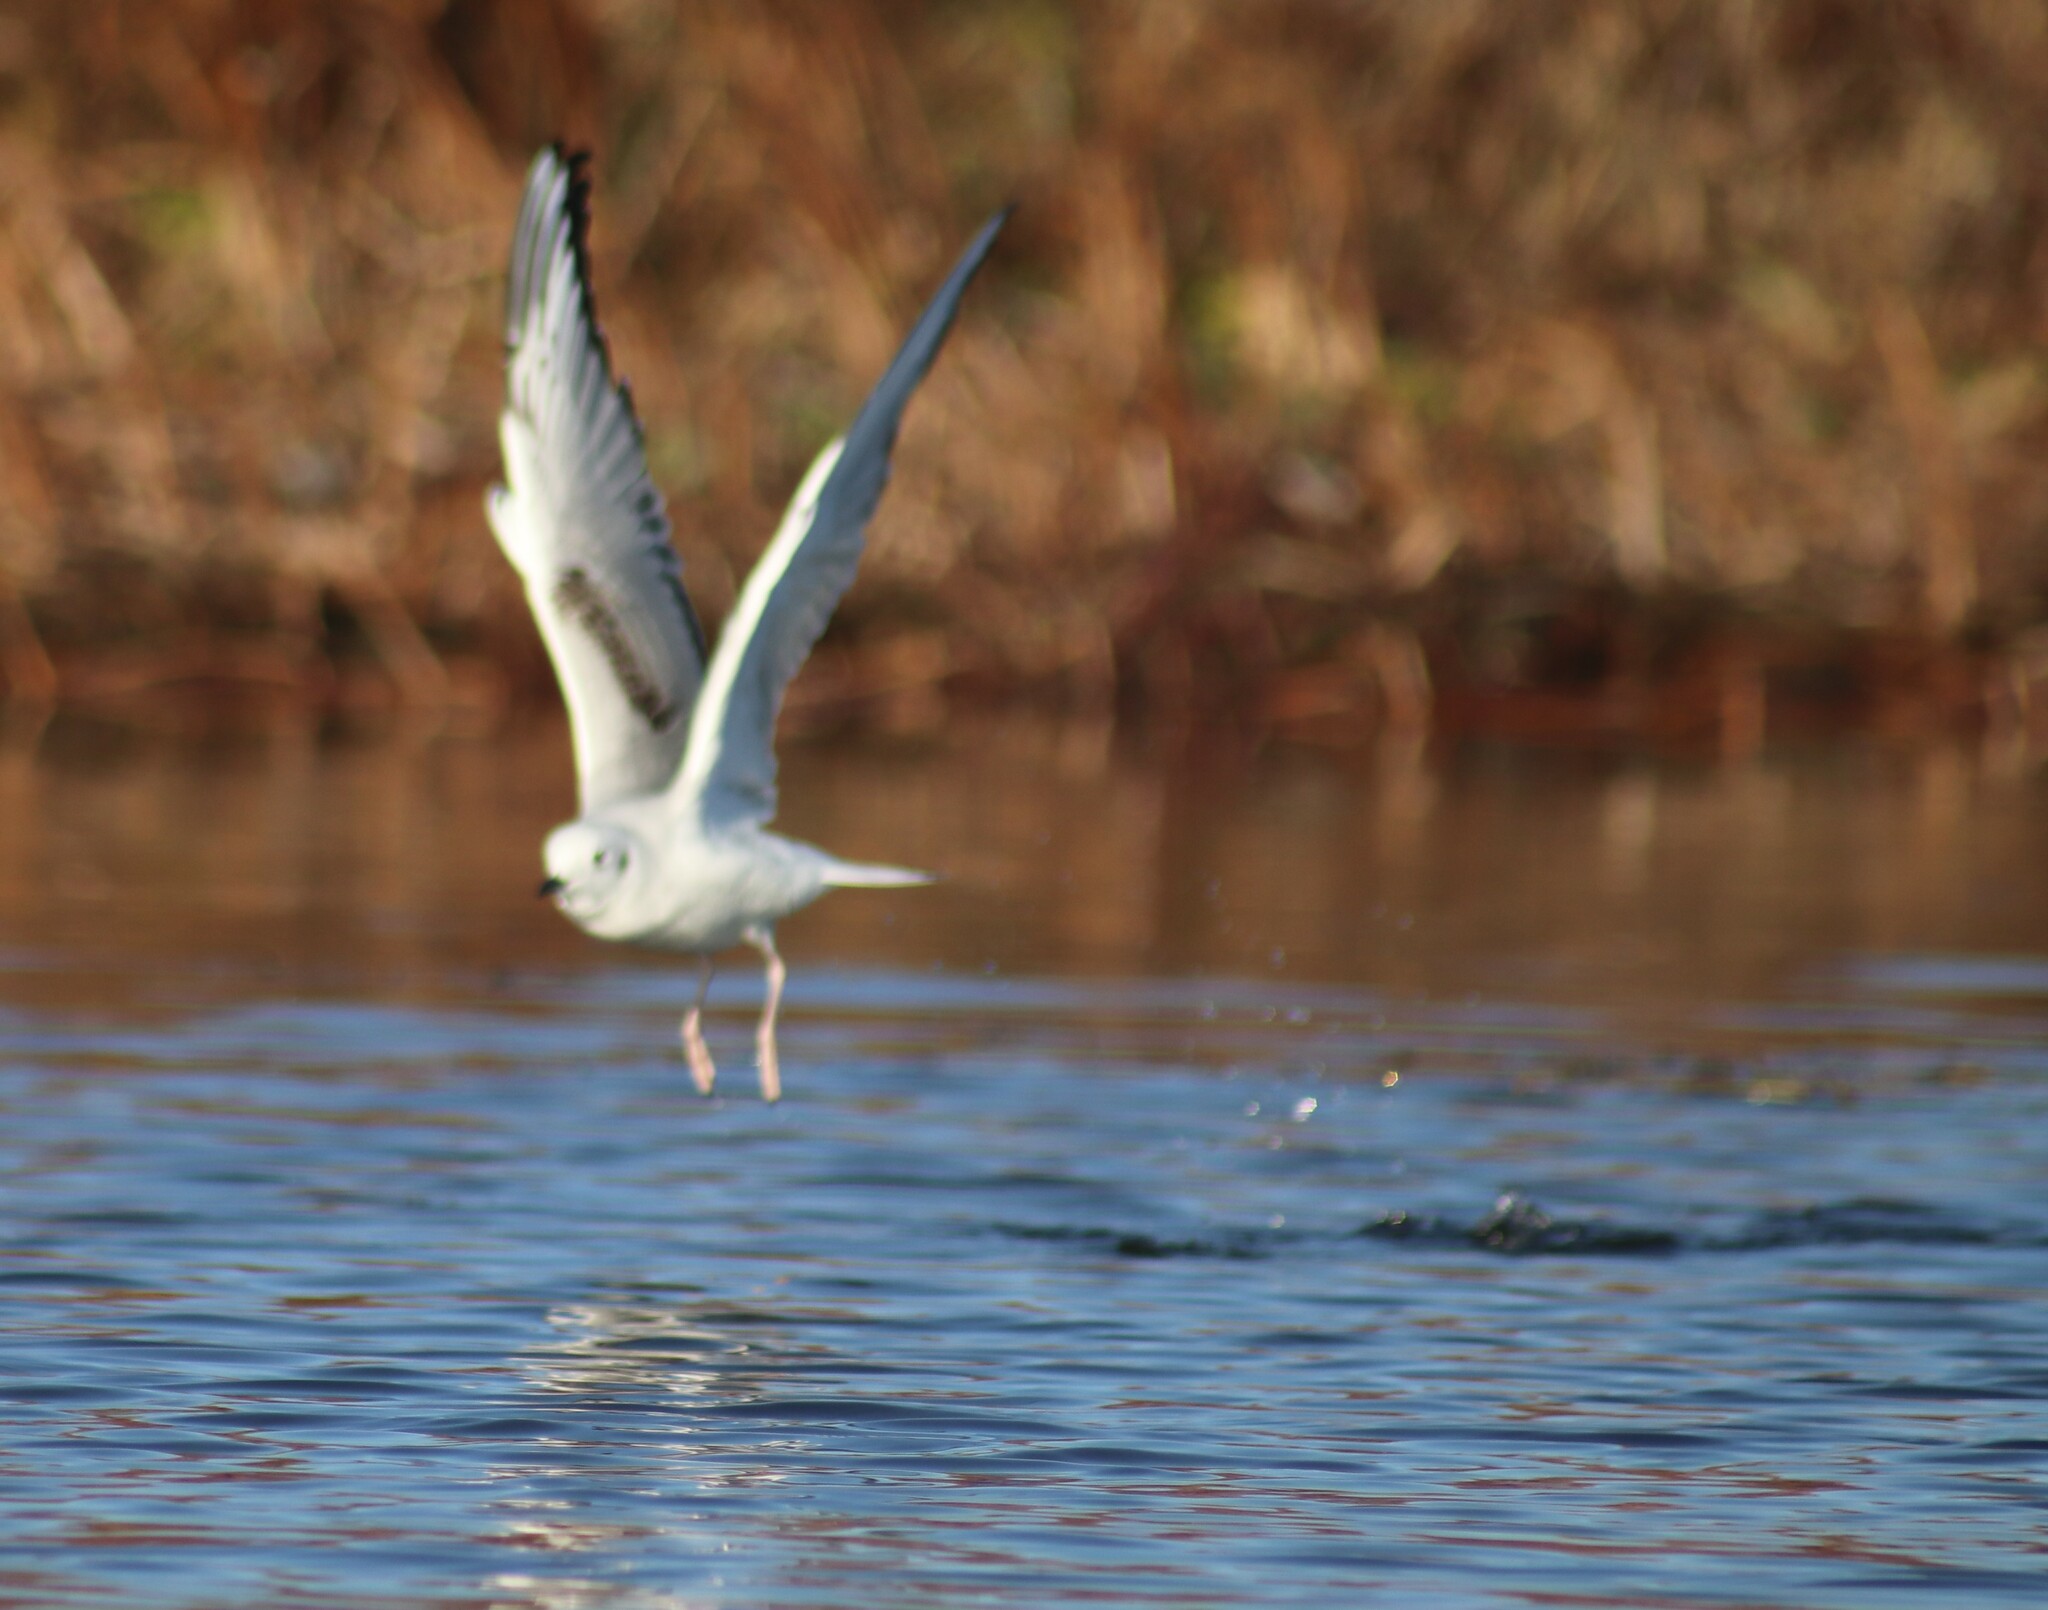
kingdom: Animalia
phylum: Chordata
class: Aves
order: Charadriiformes
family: Laridae
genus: Chroicocephalus
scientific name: Chroicocephalus philadelphia
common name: Bonaparte's gull
